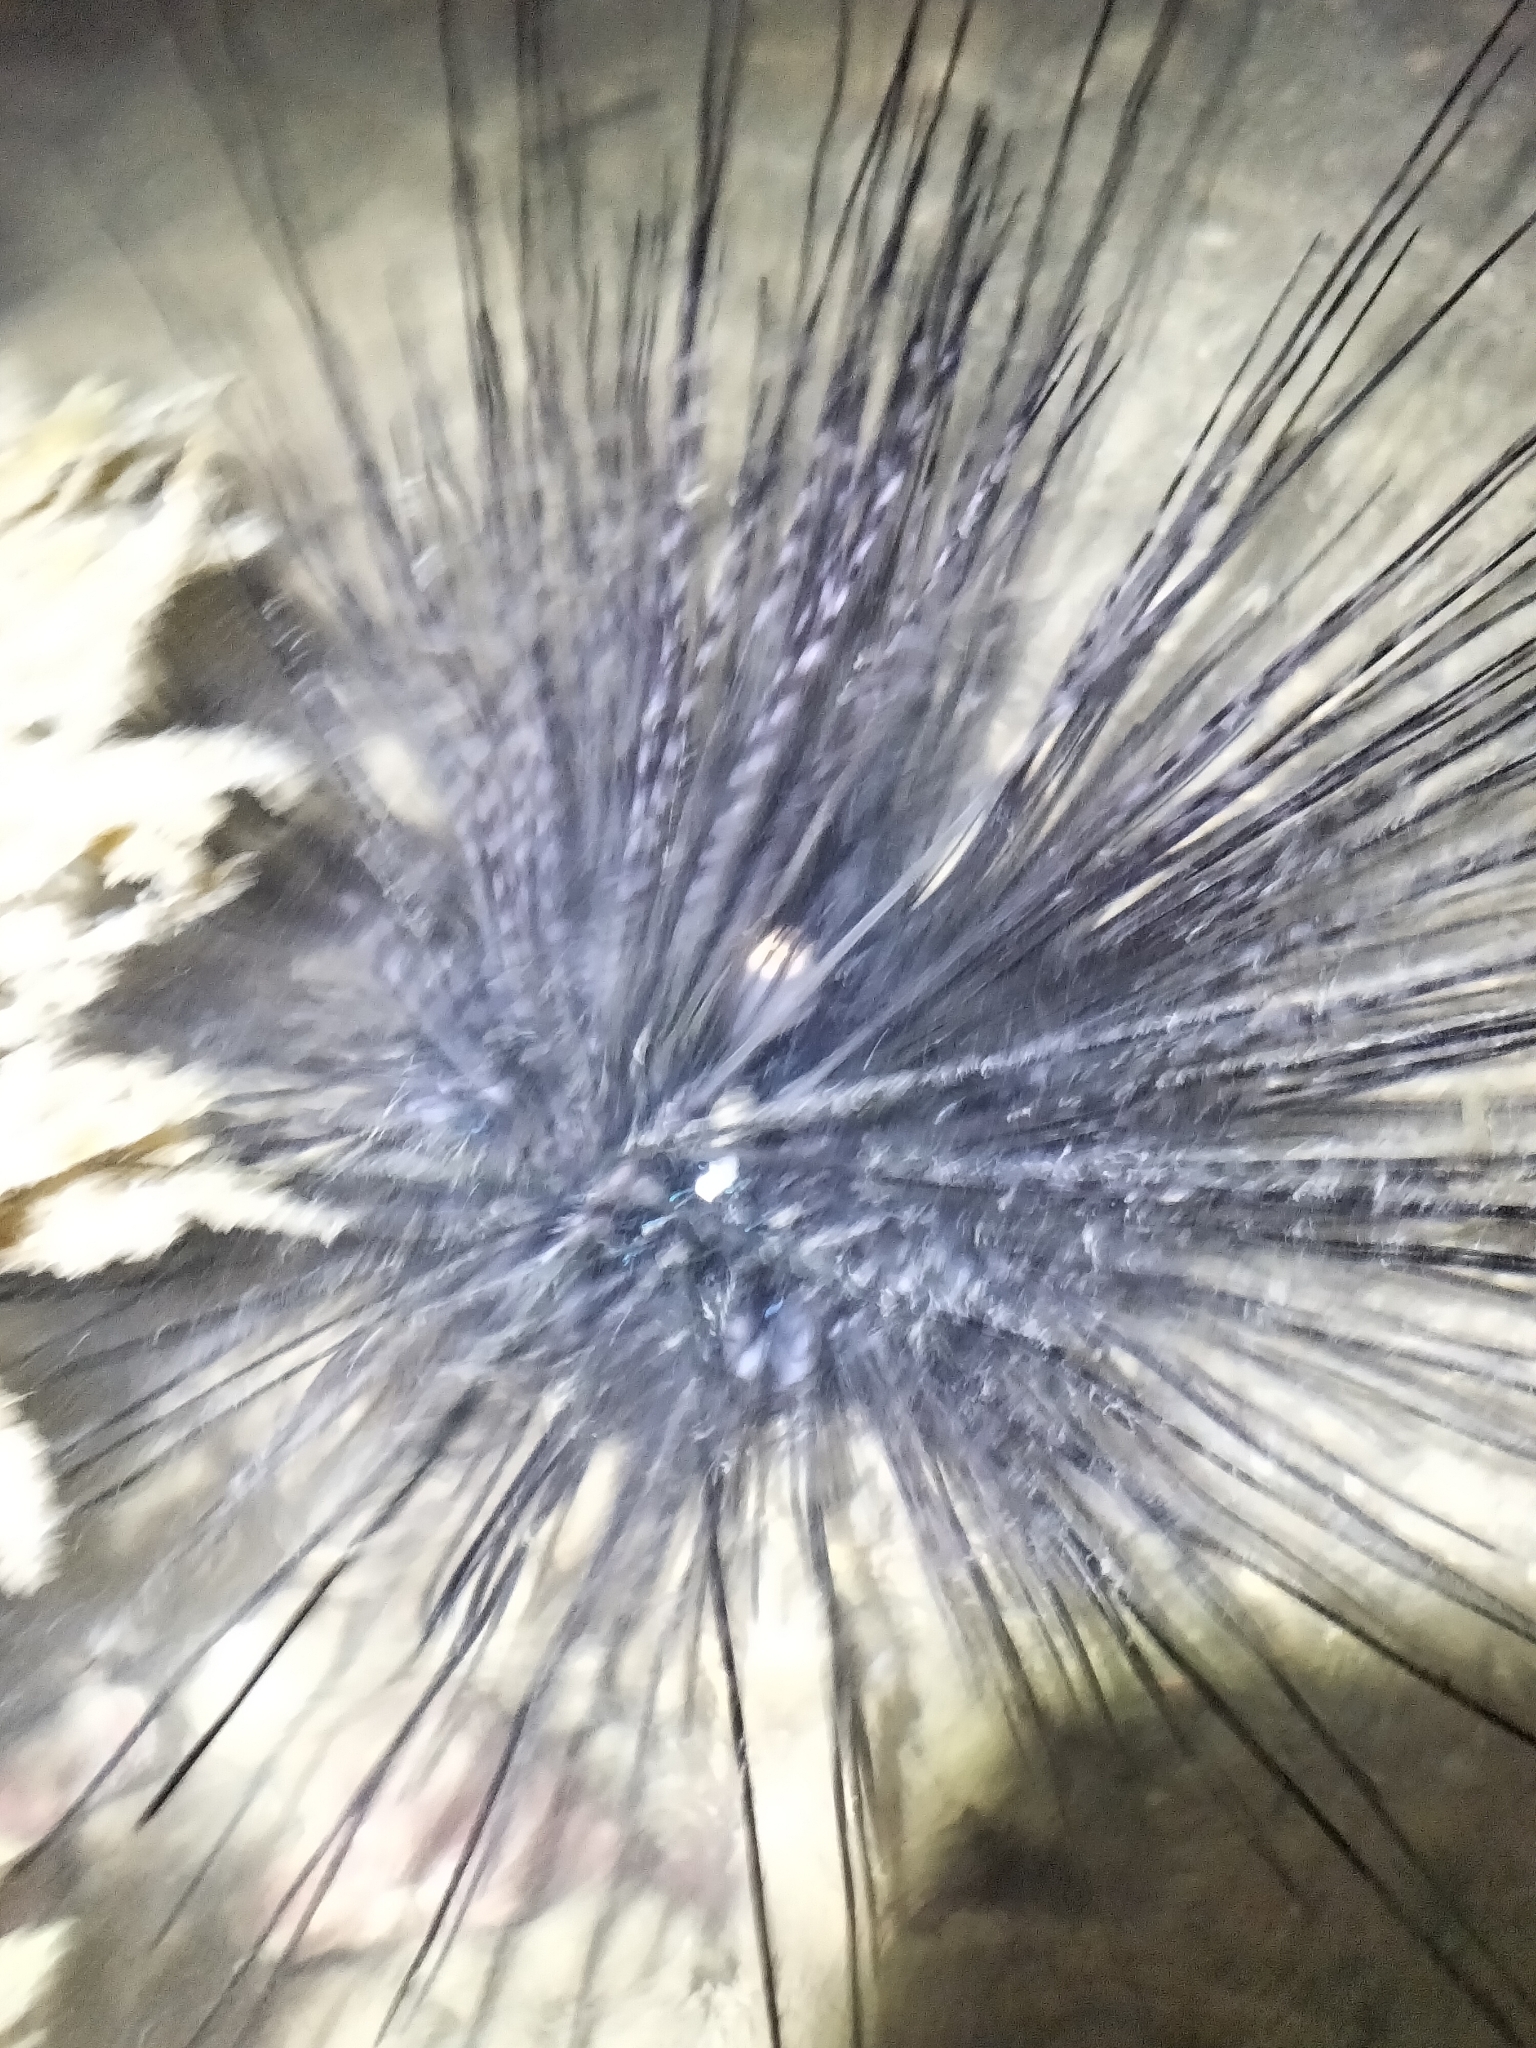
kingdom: Animalia
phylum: Echinodermata
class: Echinoidea
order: Diadematoida
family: Diadematidae
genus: Diadema
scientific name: Diadema setosum
